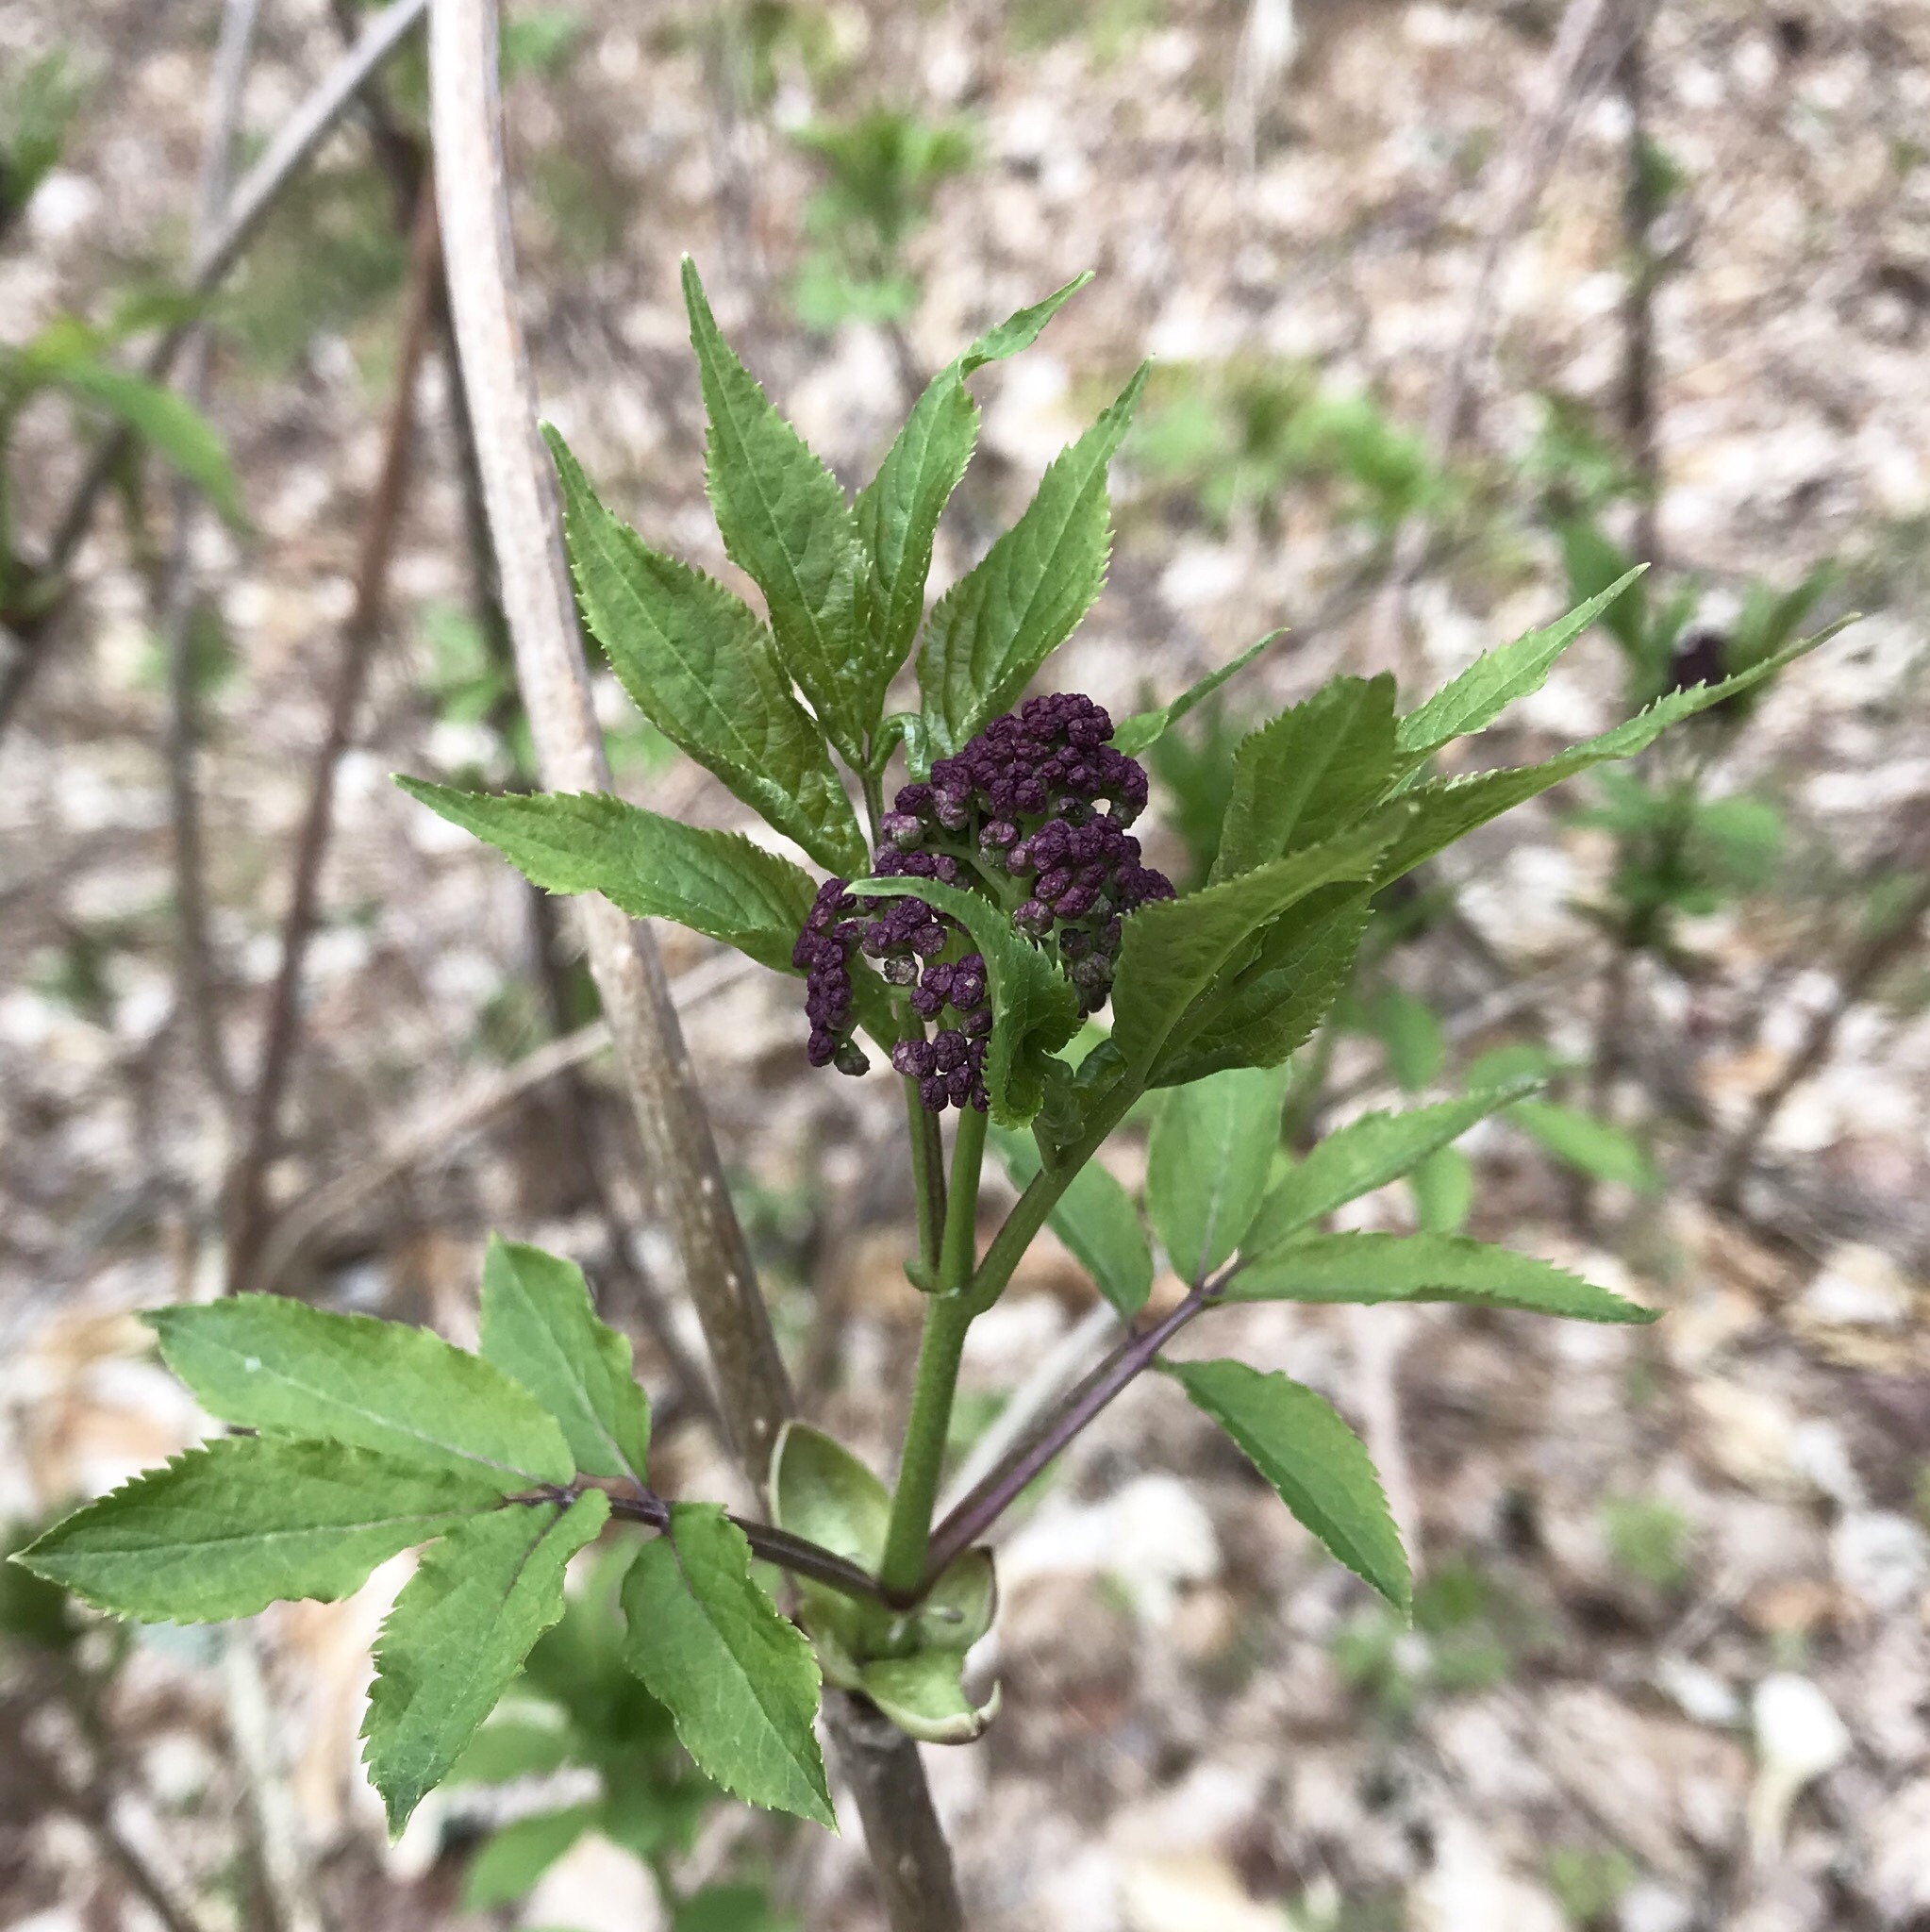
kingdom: Plantae
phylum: Tracheophyta
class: Magnoliopsida
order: Dipsacales
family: Viburnaceae
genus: Sambucus
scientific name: Sambucus racemosa
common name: Red-berried elder
